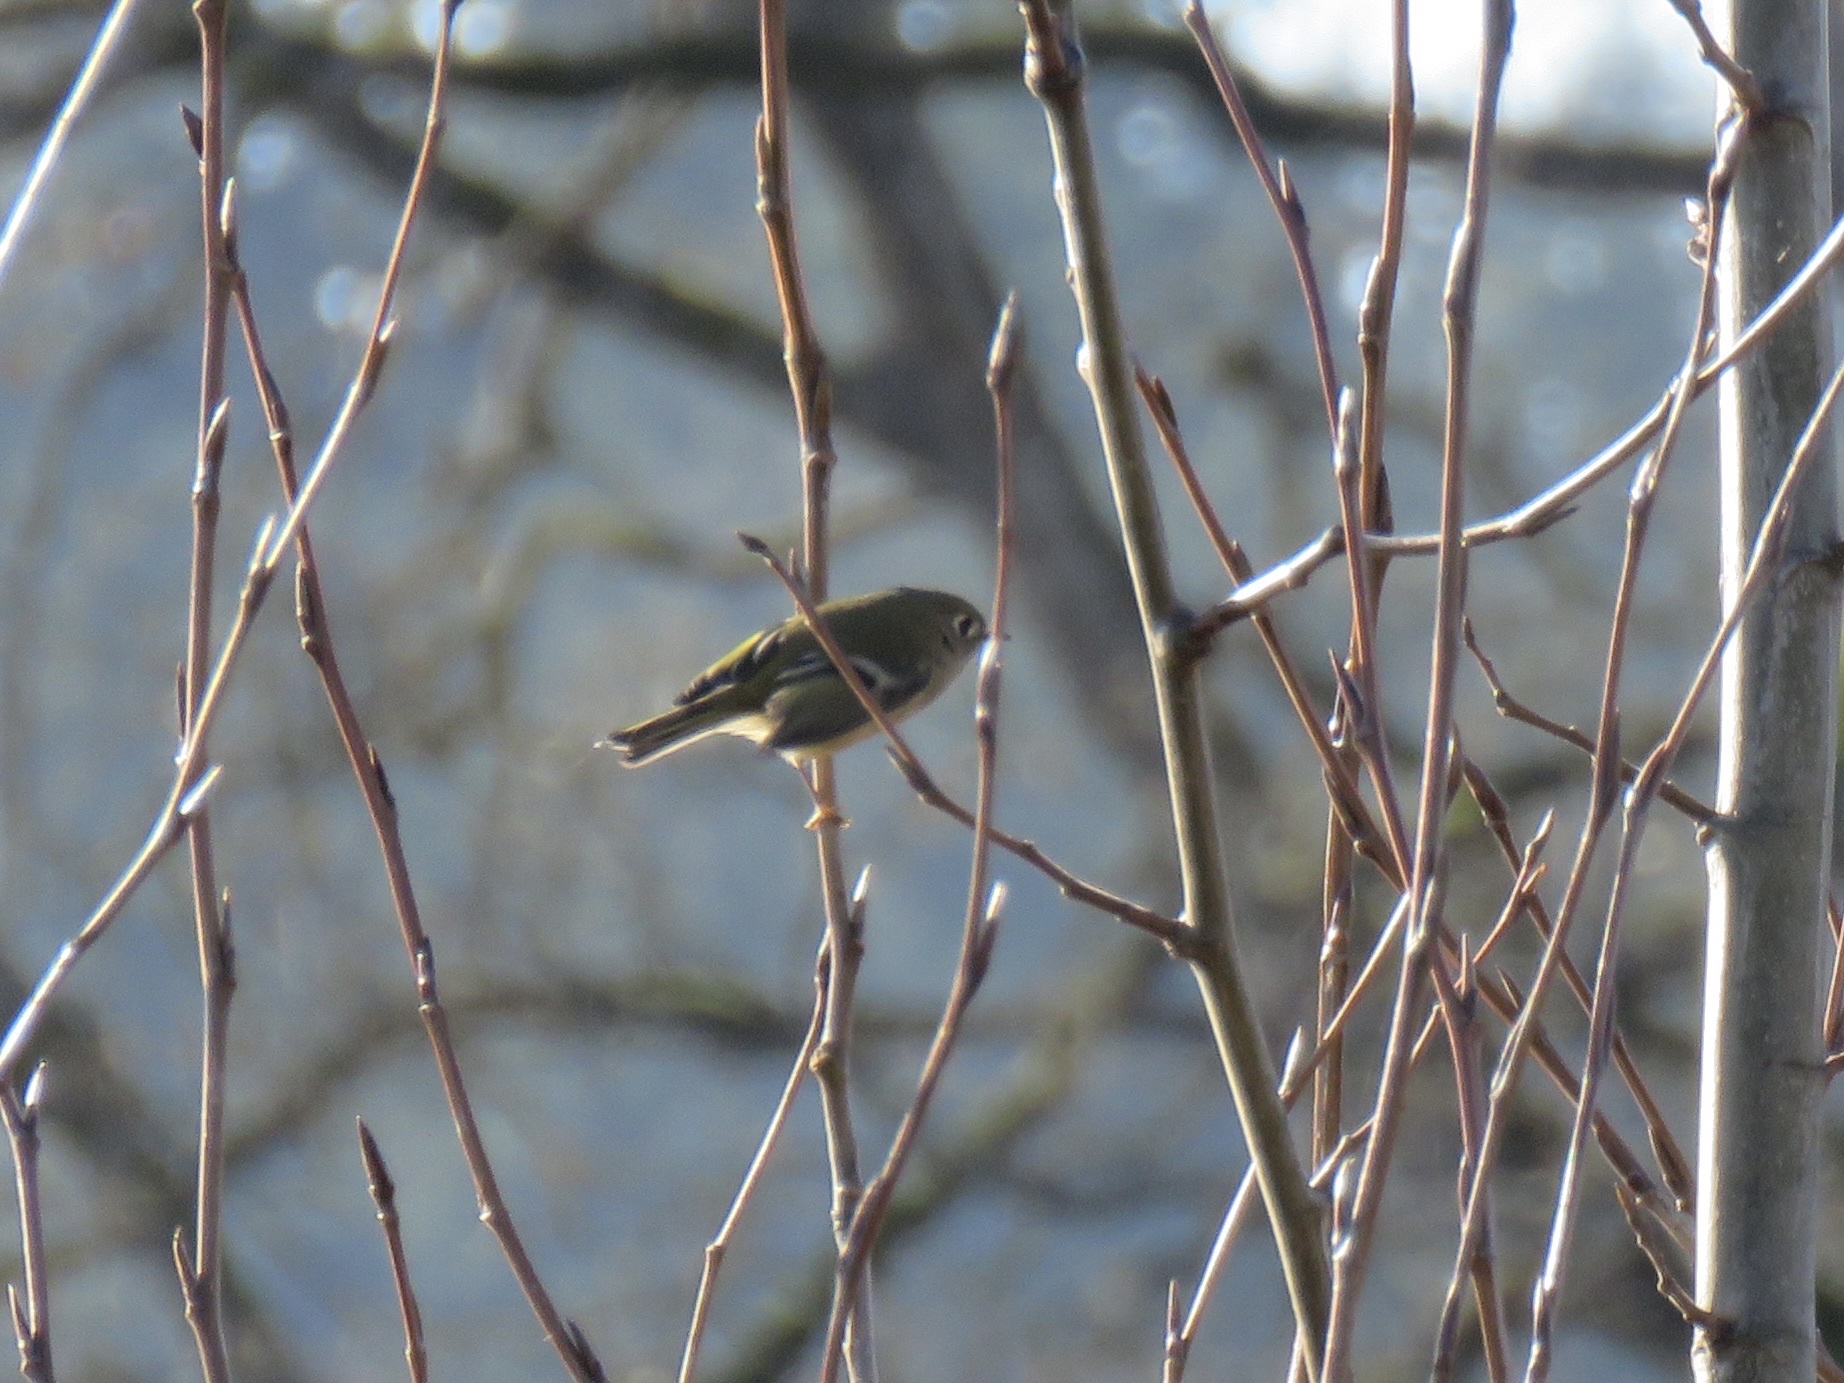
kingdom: Animalia
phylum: Chordata
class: Aves
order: Passeriformes
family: Regulidae
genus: Regulus
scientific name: Regulus calendula
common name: Ruby-crowned kinglet
